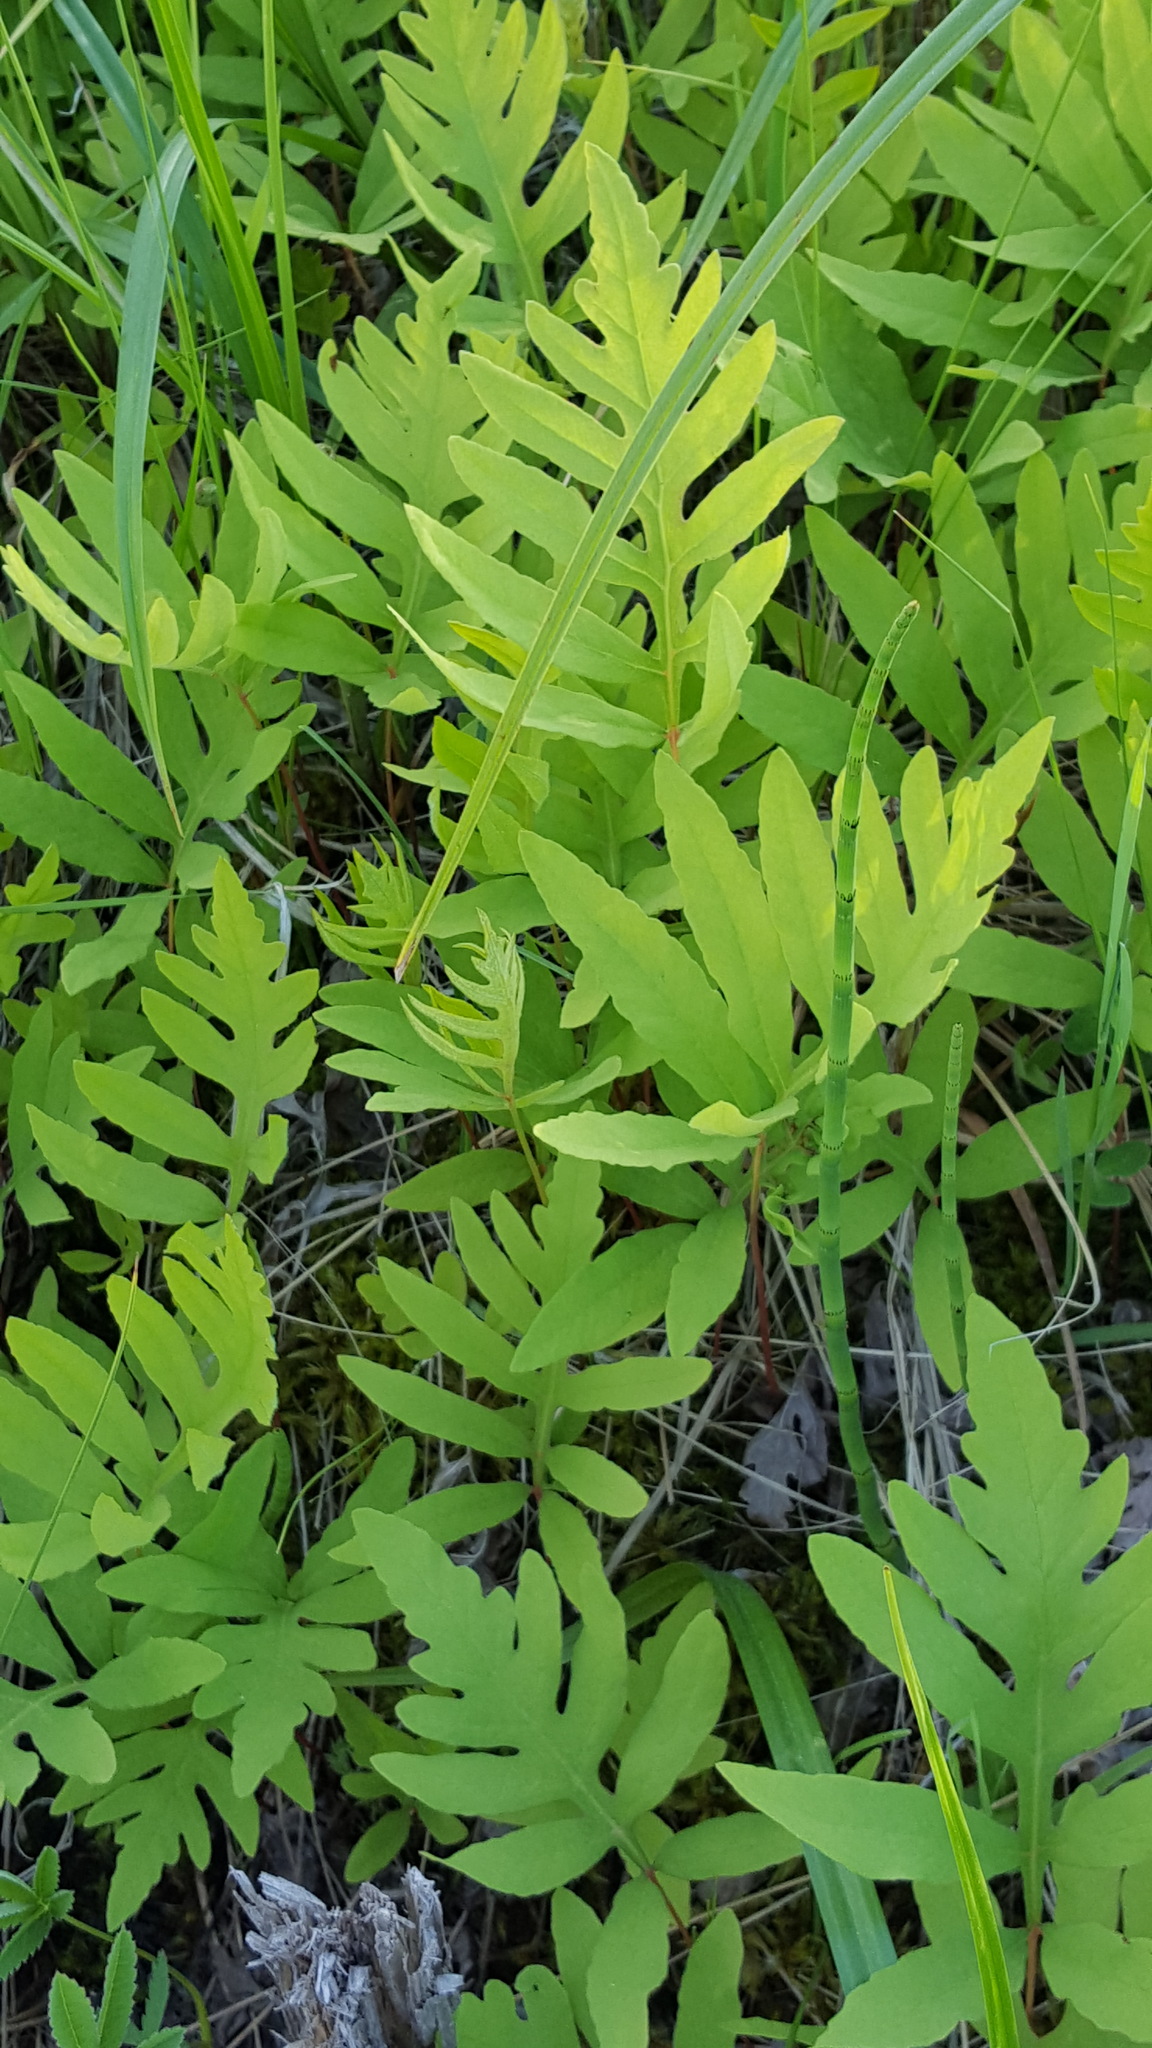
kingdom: Plantae
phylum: Tracheophyta
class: Polypodiopsida
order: Polypodiales
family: Onocleaceae
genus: Onoclea
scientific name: Onoclea sensibilis
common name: Sensitive fern
